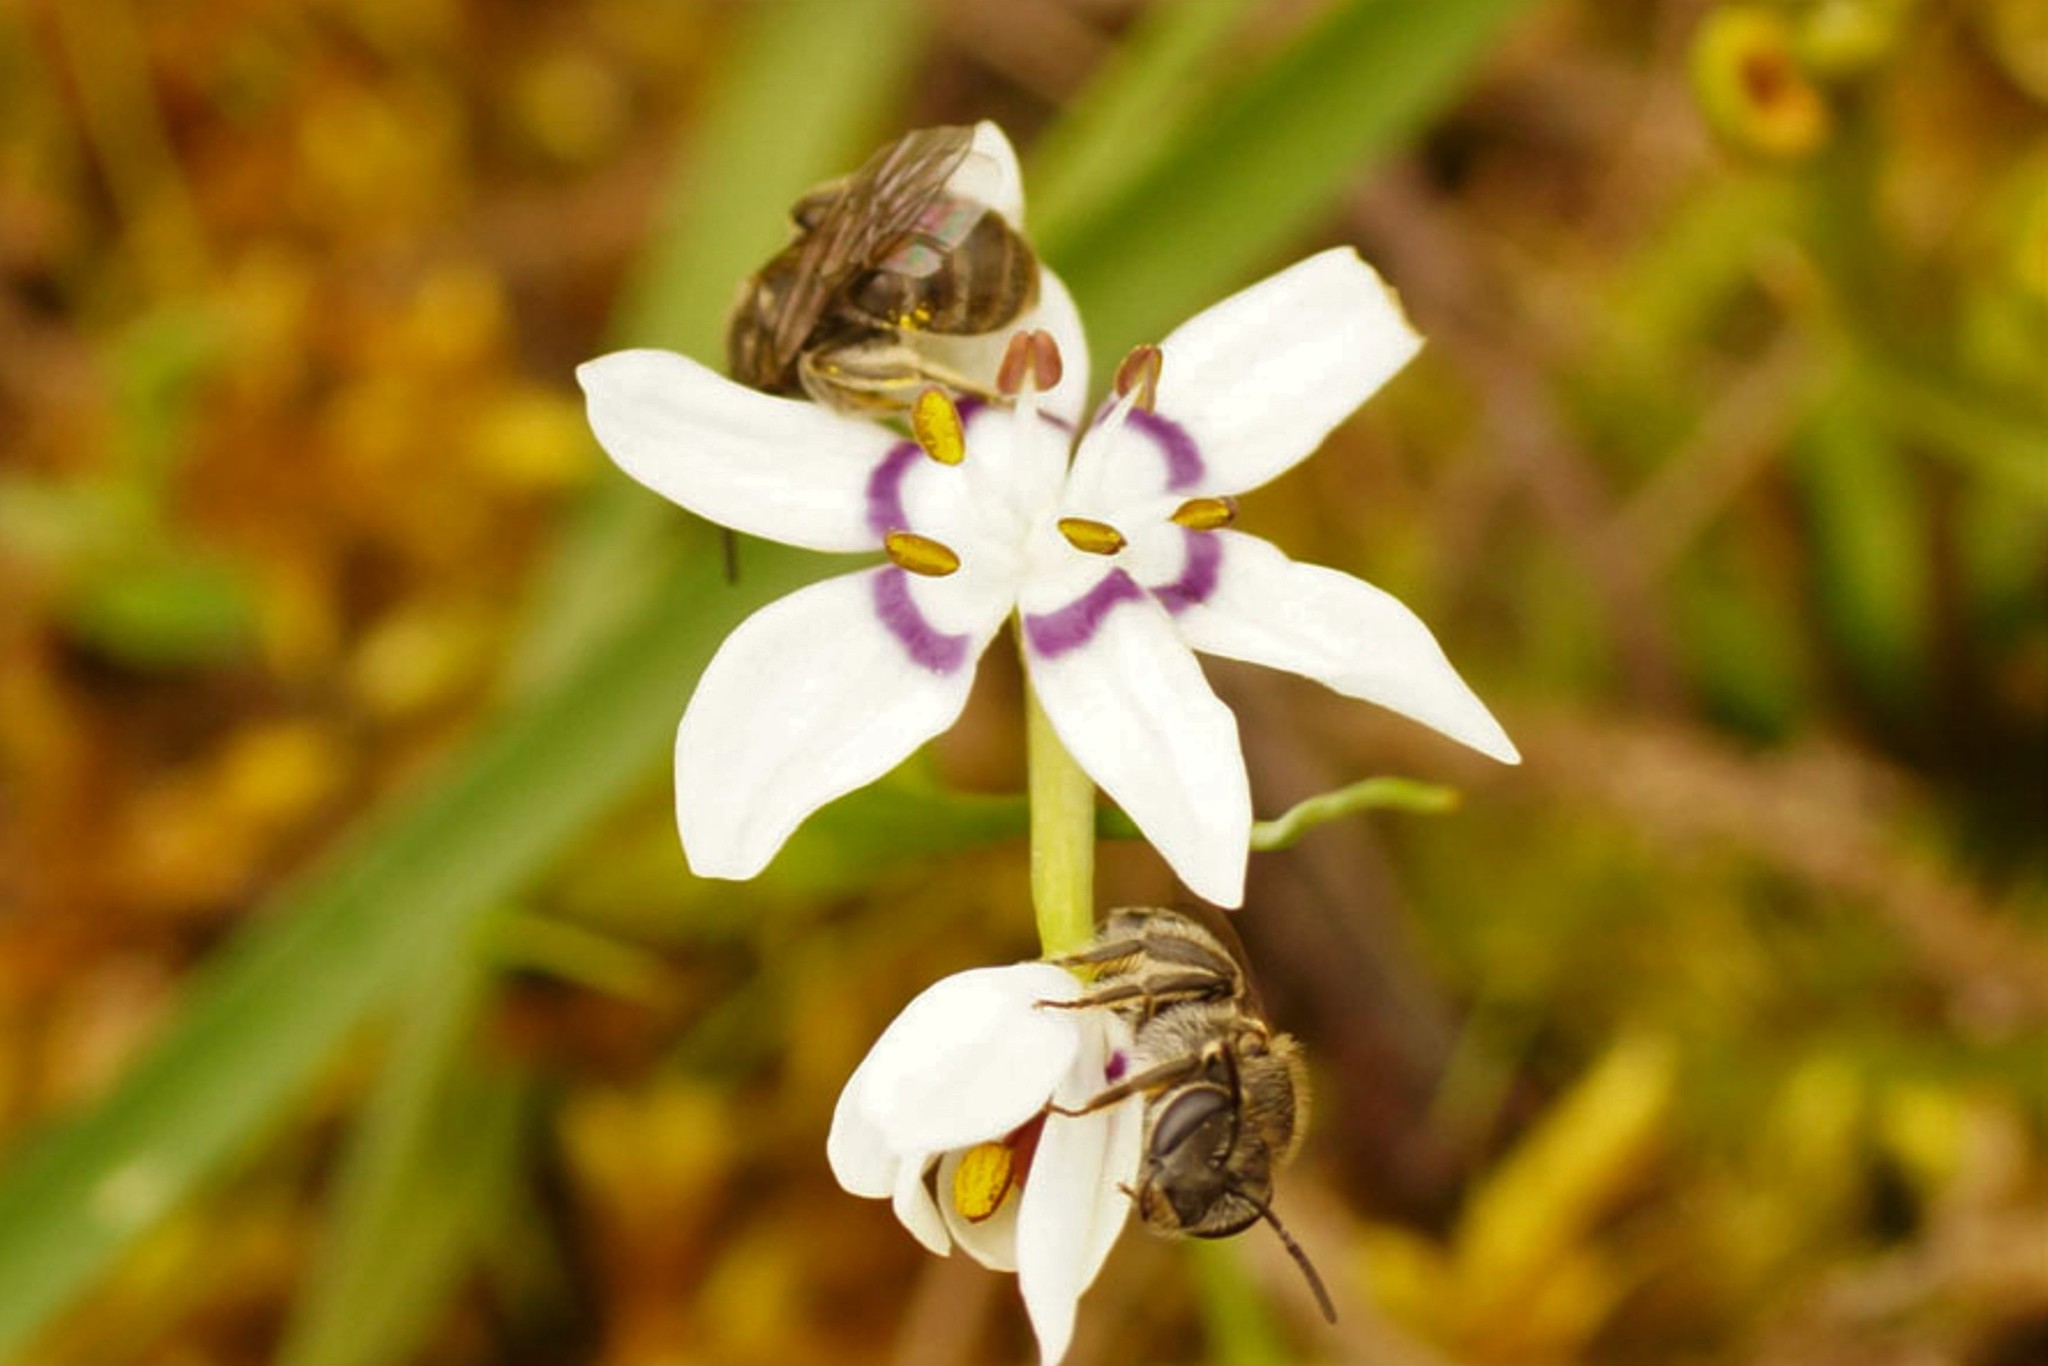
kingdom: Animalia
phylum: Arthropoda
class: Insecta
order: Hymenoptera
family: Halictidae
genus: Lasioglossum
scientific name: Lasioglossum
